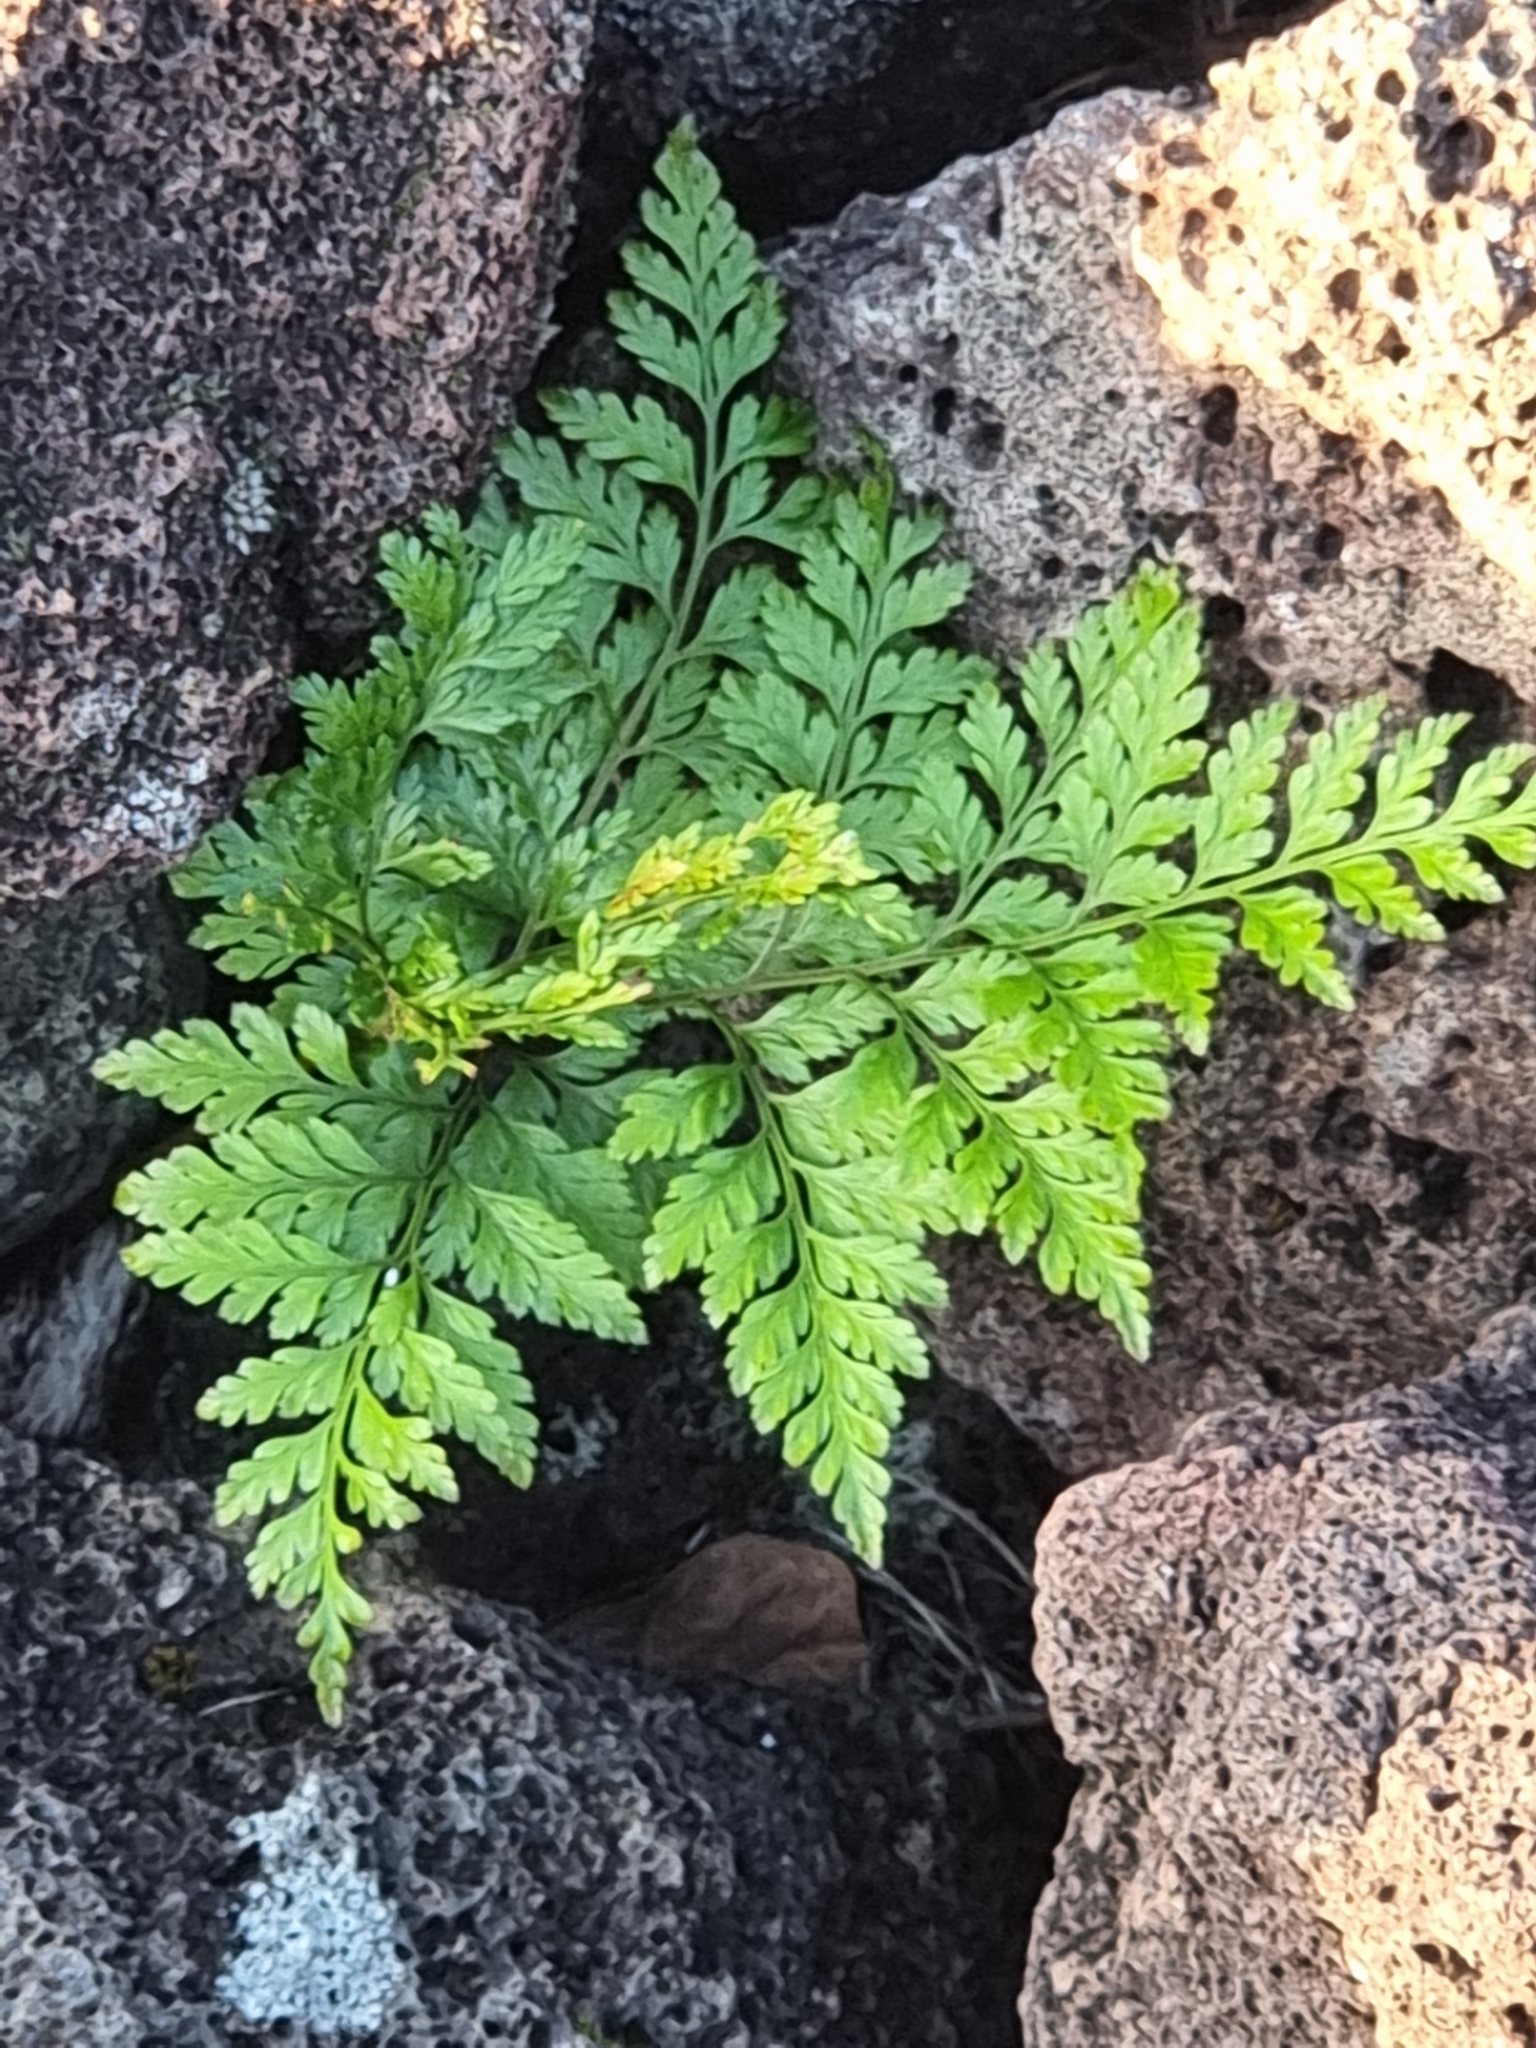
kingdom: Plantae
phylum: Tracheophyta
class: Polypodiopsida
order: Polypodiales
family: Davalliaceae
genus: Davallia
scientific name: Davallia canariensis
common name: Hare's-foot fern
